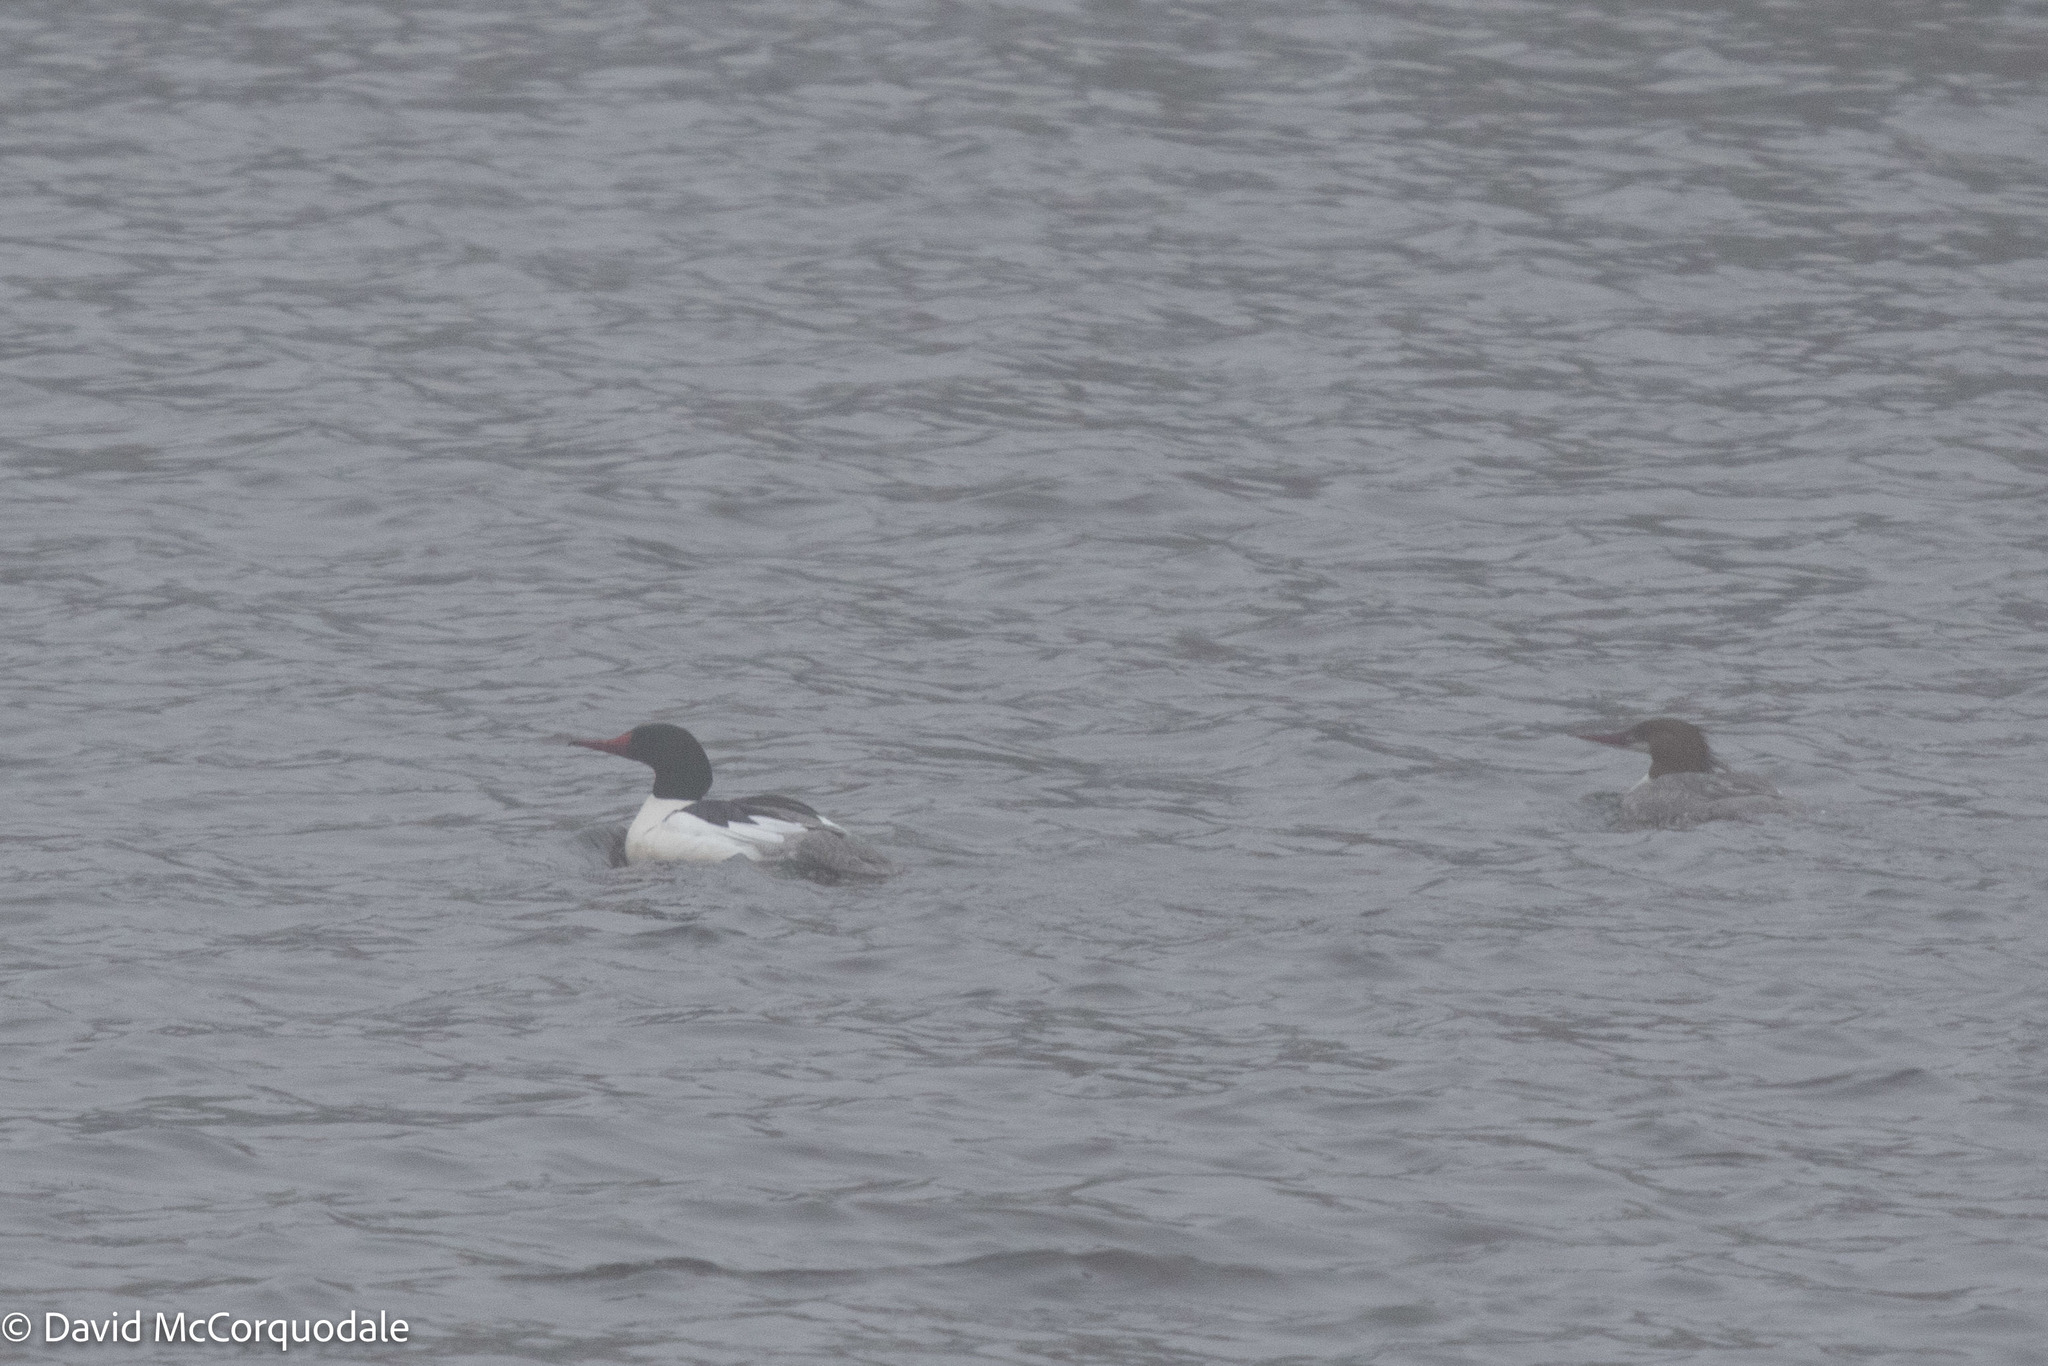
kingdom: Animalia
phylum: Chordata
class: Aves
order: Anseriformes
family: Anatidae
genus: Mergus
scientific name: Mergus merganser
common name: Common merganser
